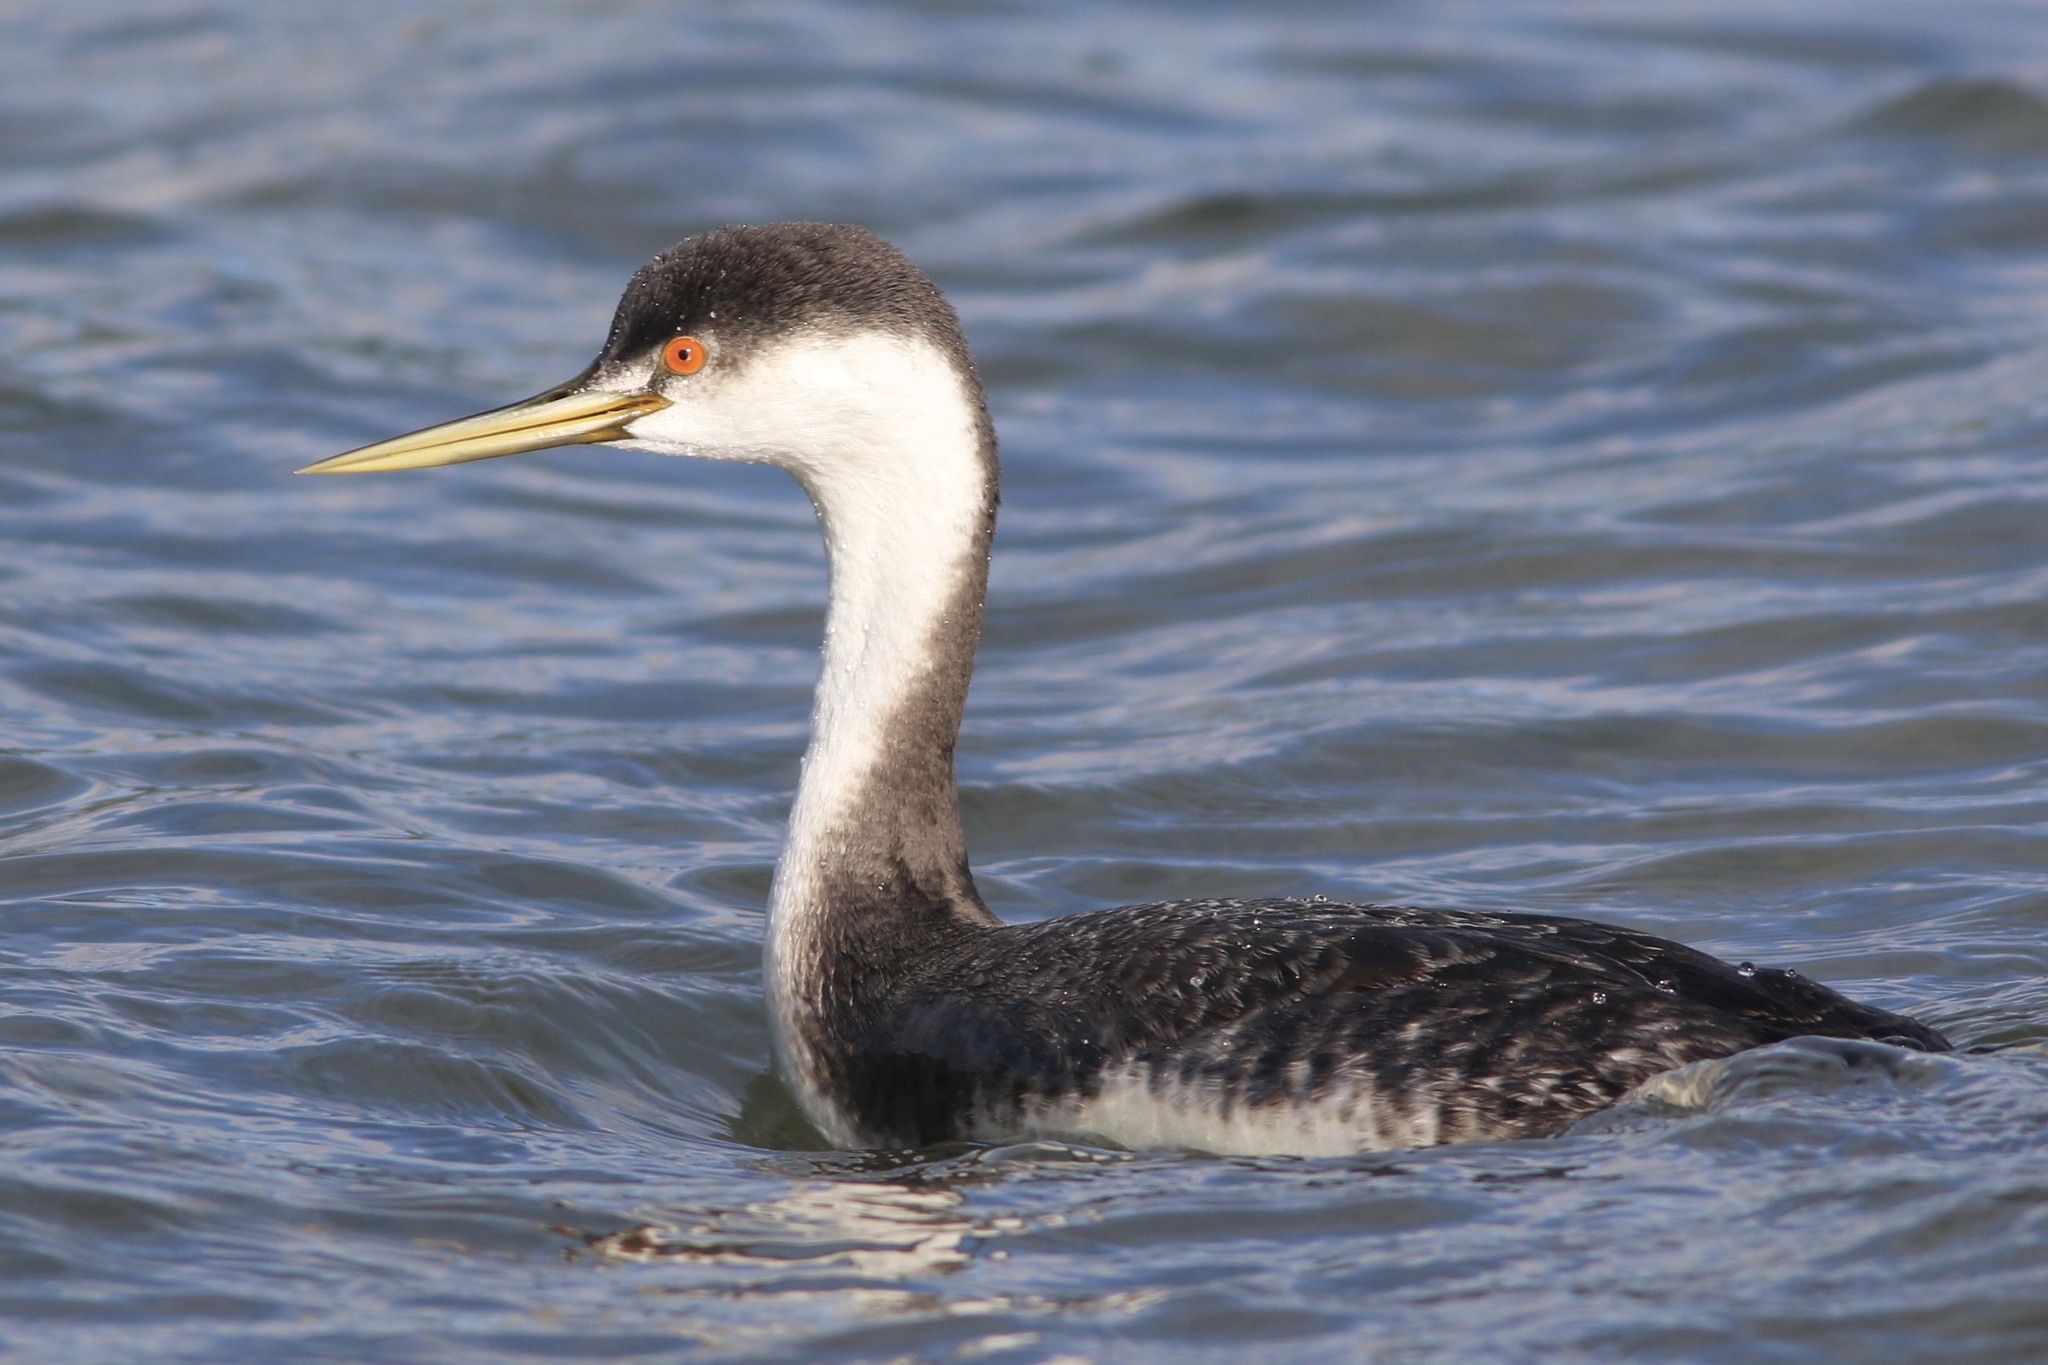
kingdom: Animalia
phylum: Chordata
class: Aves
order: Podicipediformes
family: Podicipedidae
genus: Aechmophorus
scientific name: Aechmophorus occidentalis
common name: Western grebe
